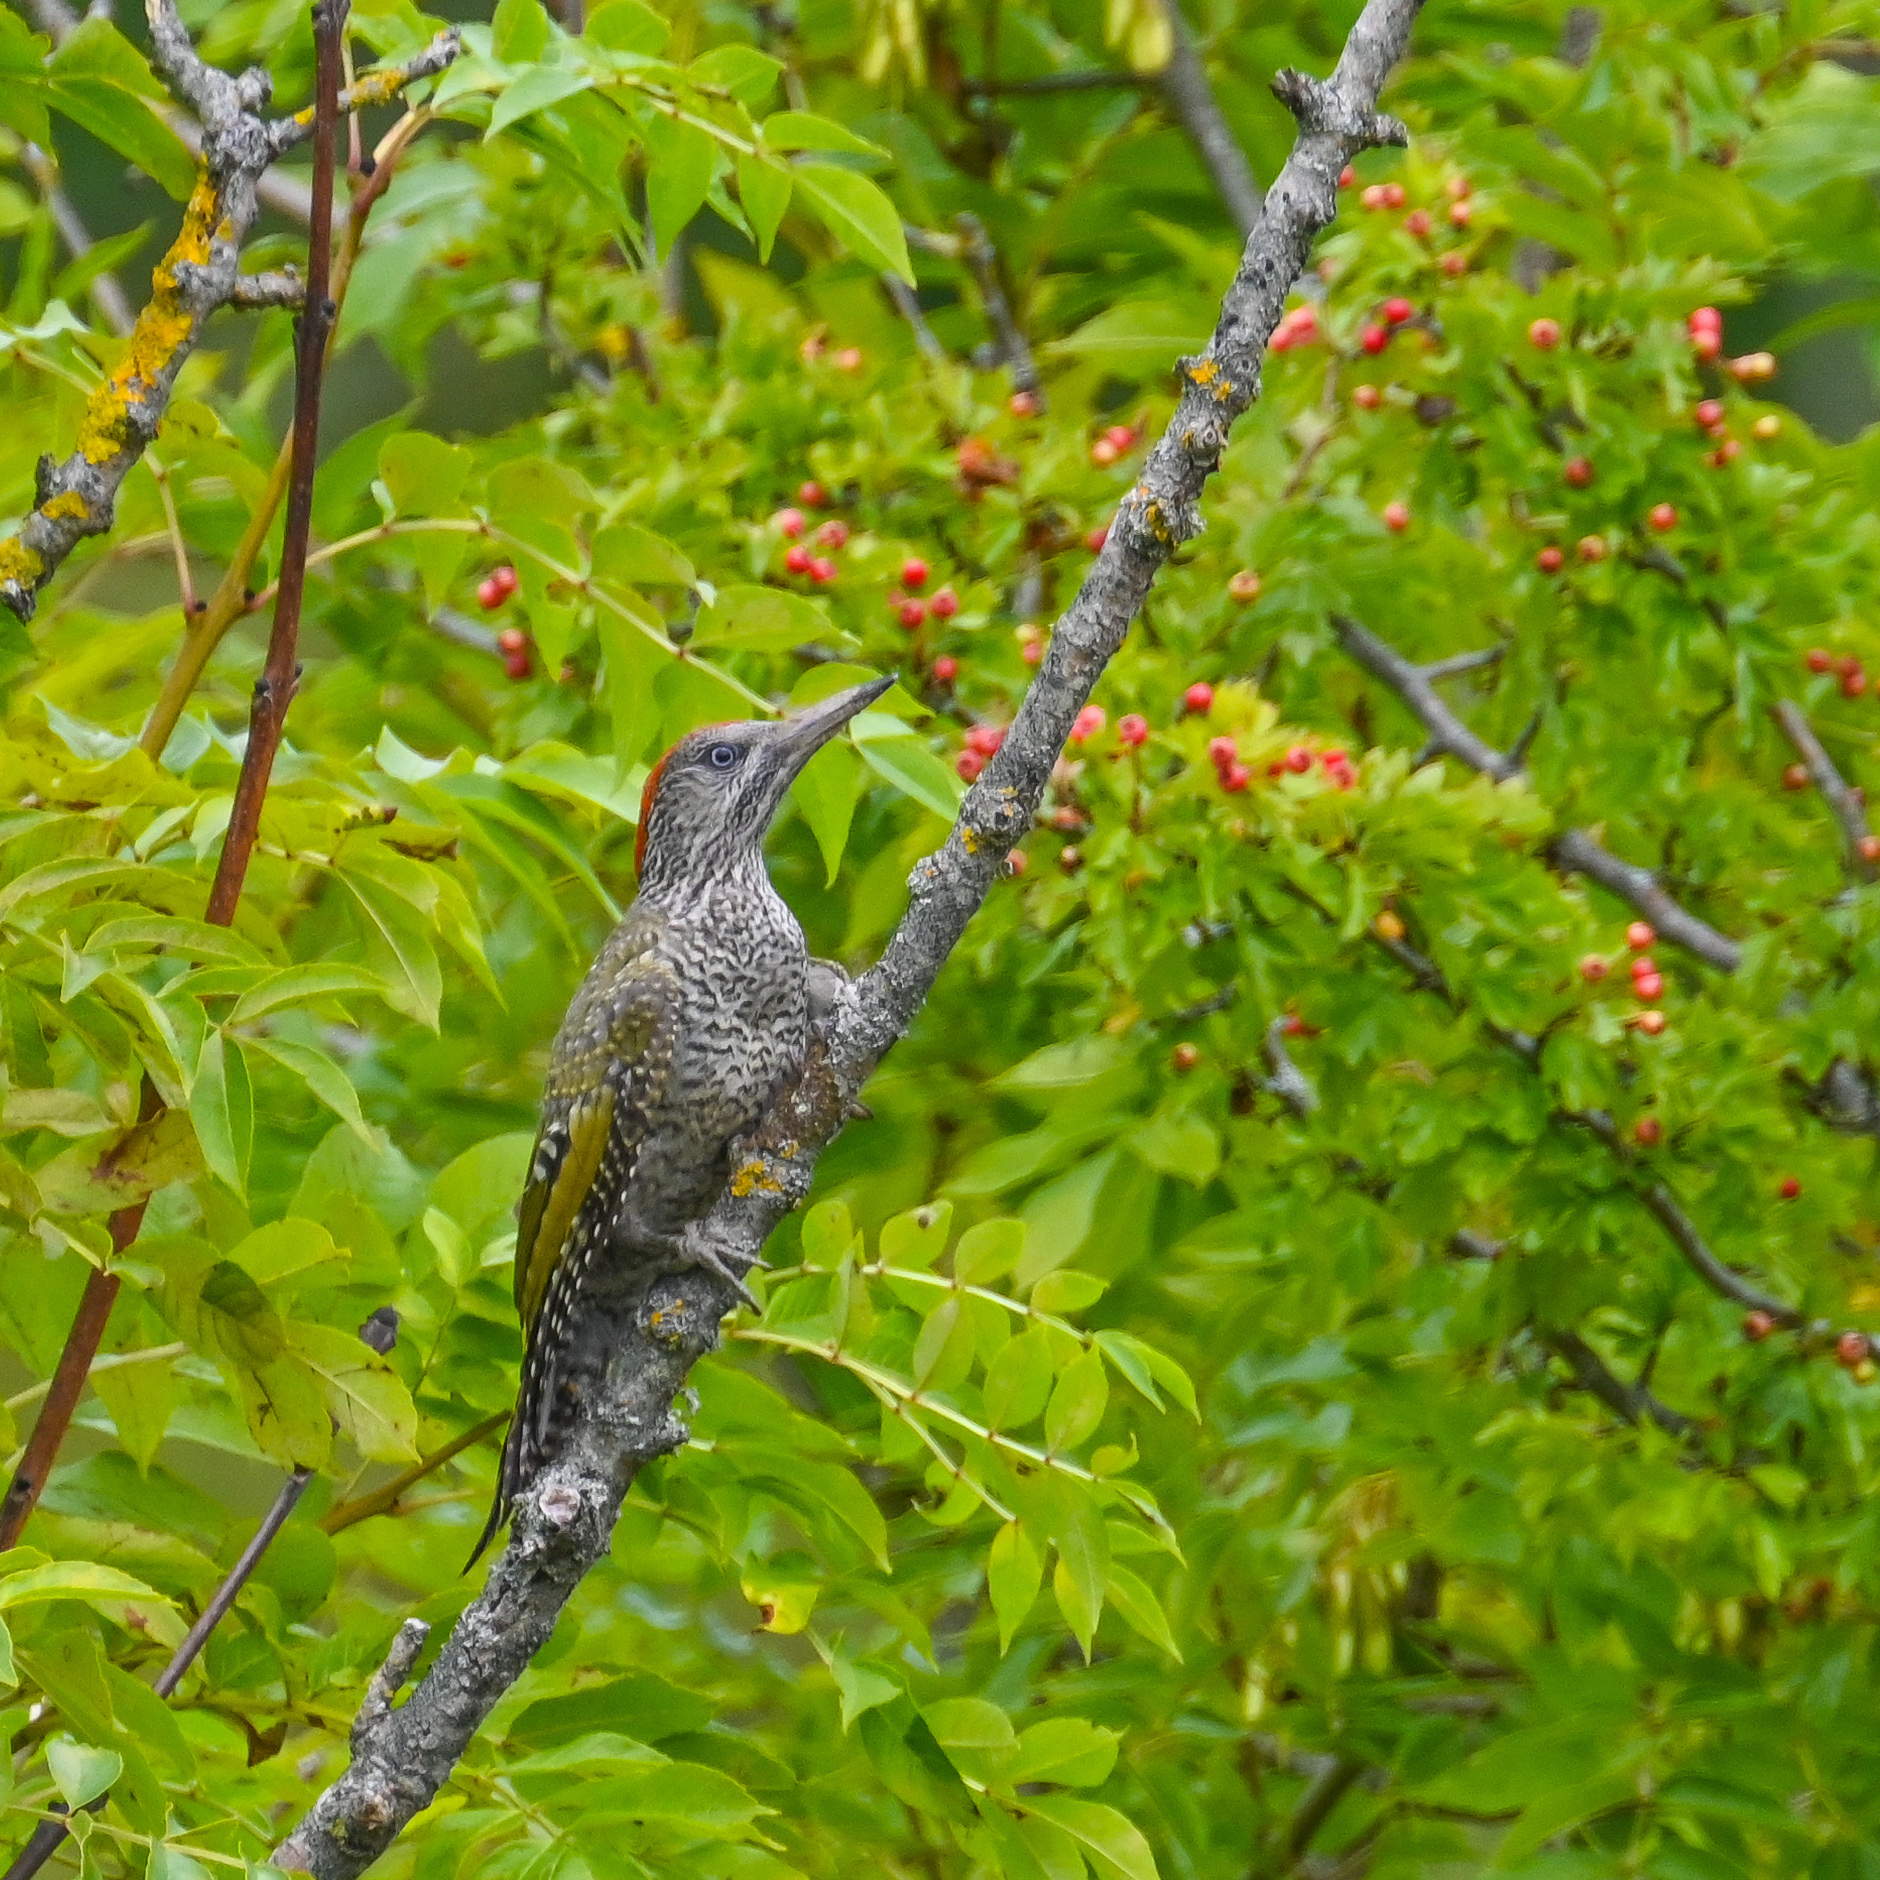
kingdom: Animalia
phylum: Chordata
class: Aves
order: Piciformes
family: Picidae
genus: Picus
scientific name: Picus viridis
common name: European green woodpecker
